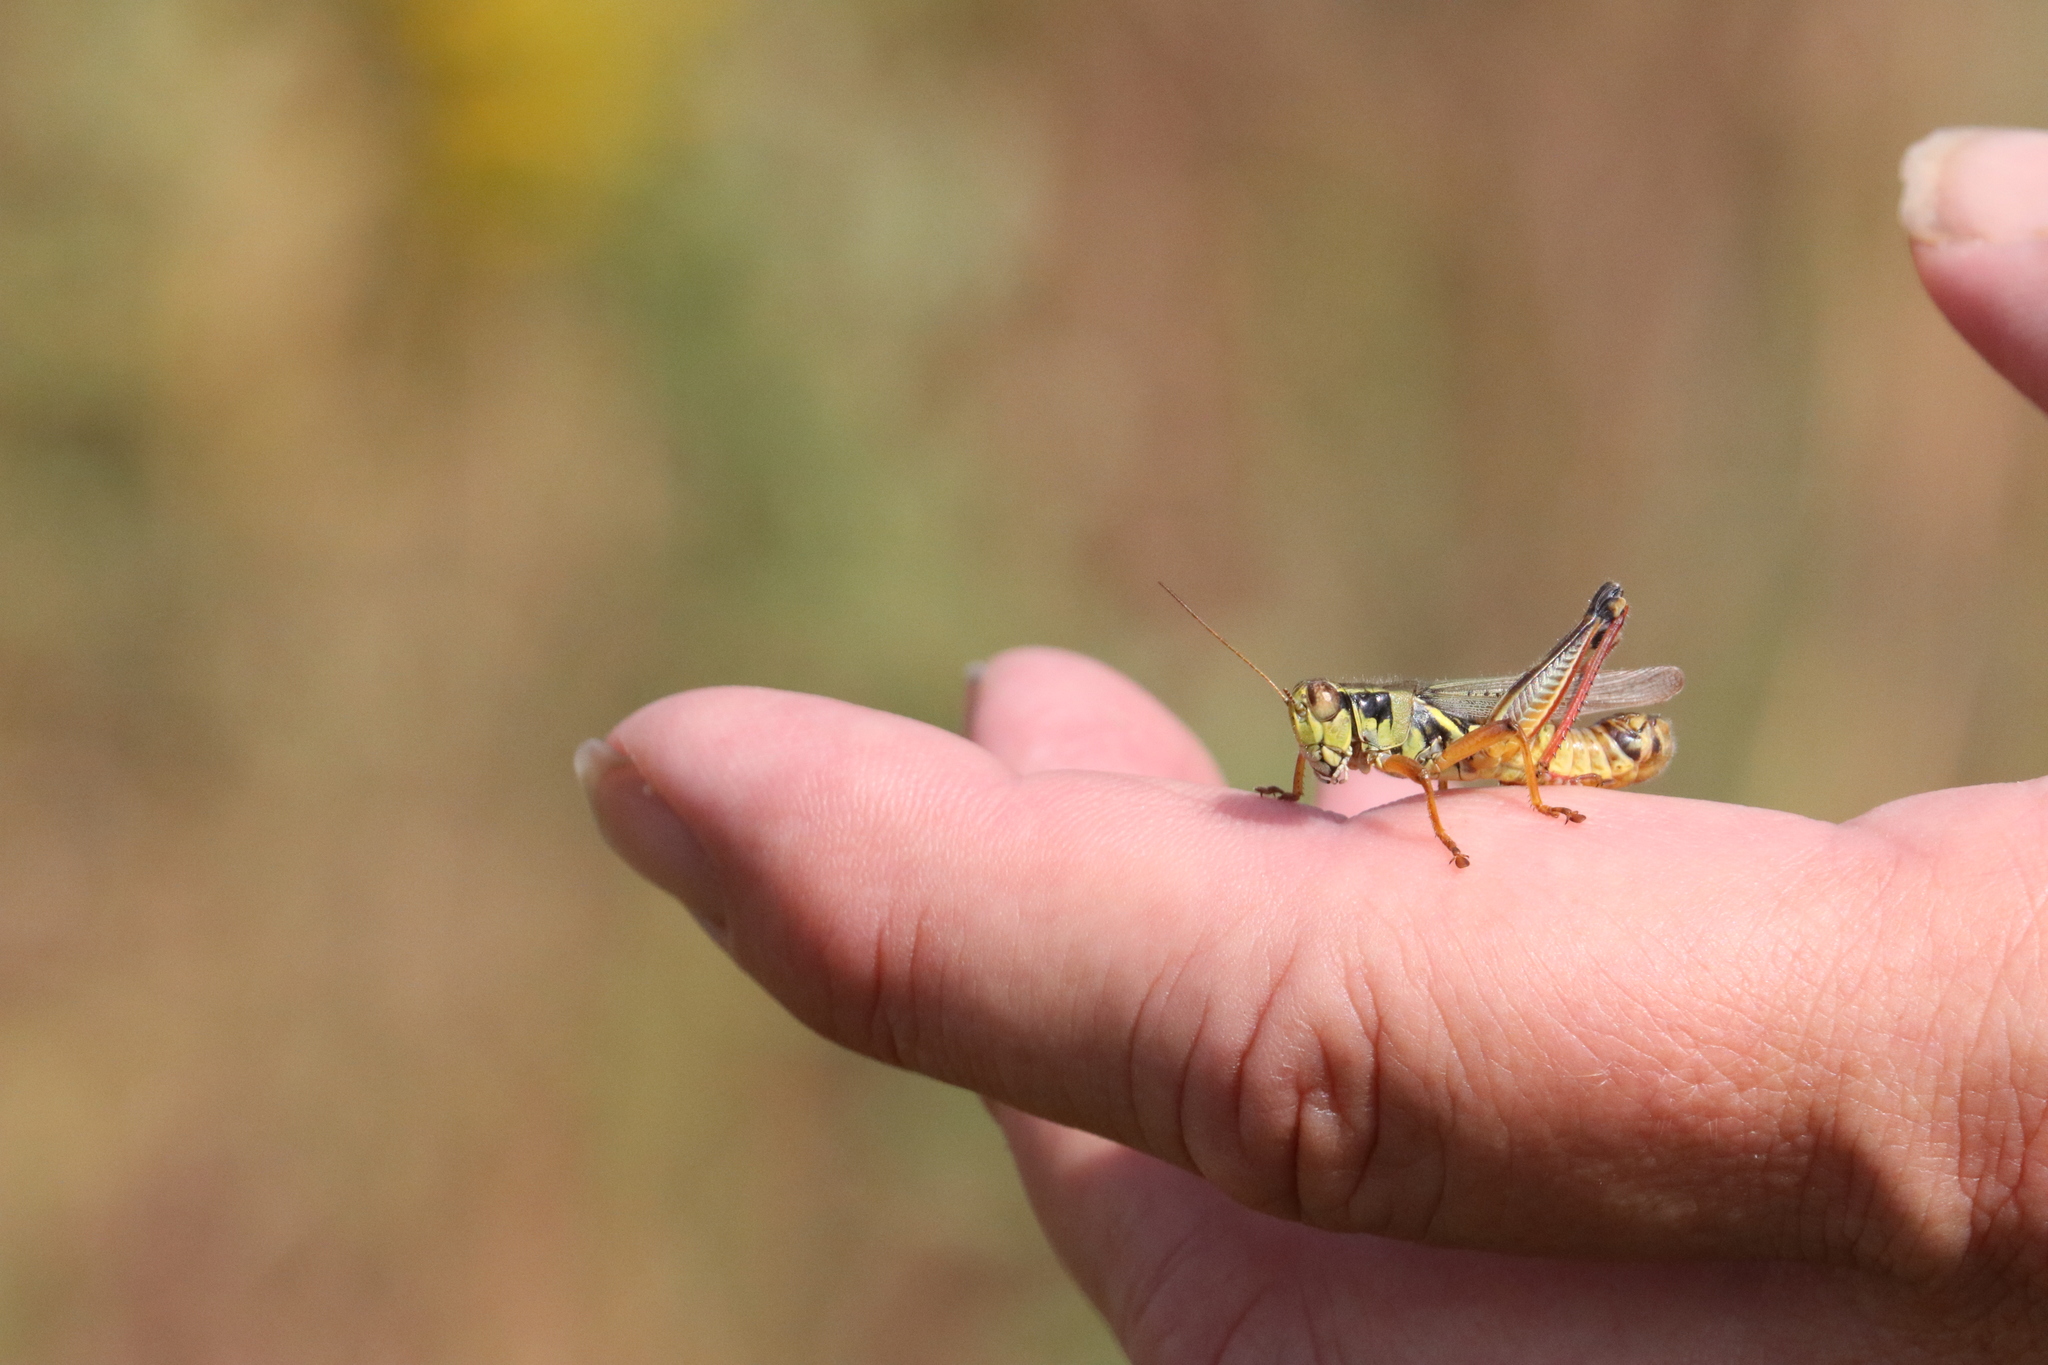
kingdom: Animalia
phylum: Arthropoda
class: Insecta
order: Orthoptera
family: Acrididae
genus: Melanoplus
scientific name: Melanoplus femurrubrum
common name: Red-legged grasshopper
